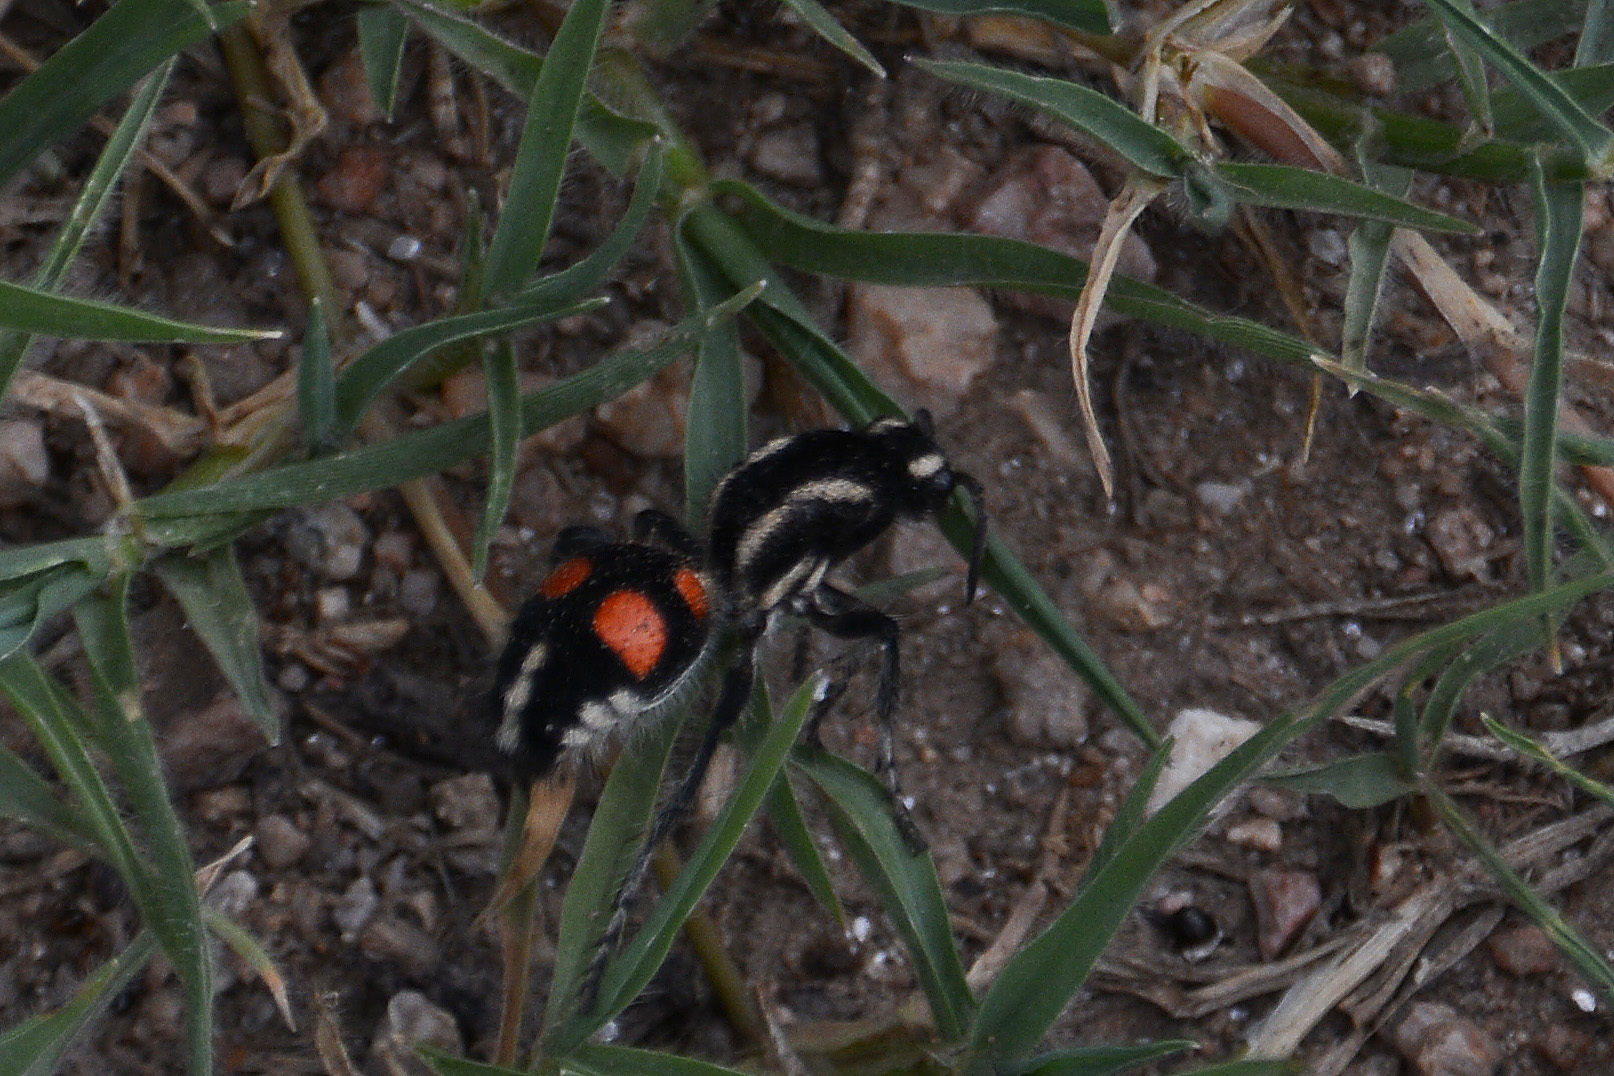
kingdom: Animalia
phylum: Arthropoda
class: Insecta
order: Hymenoptera
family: Mutillidae
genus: Traumatomutilla
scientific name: Traumatomutilla bivittata
